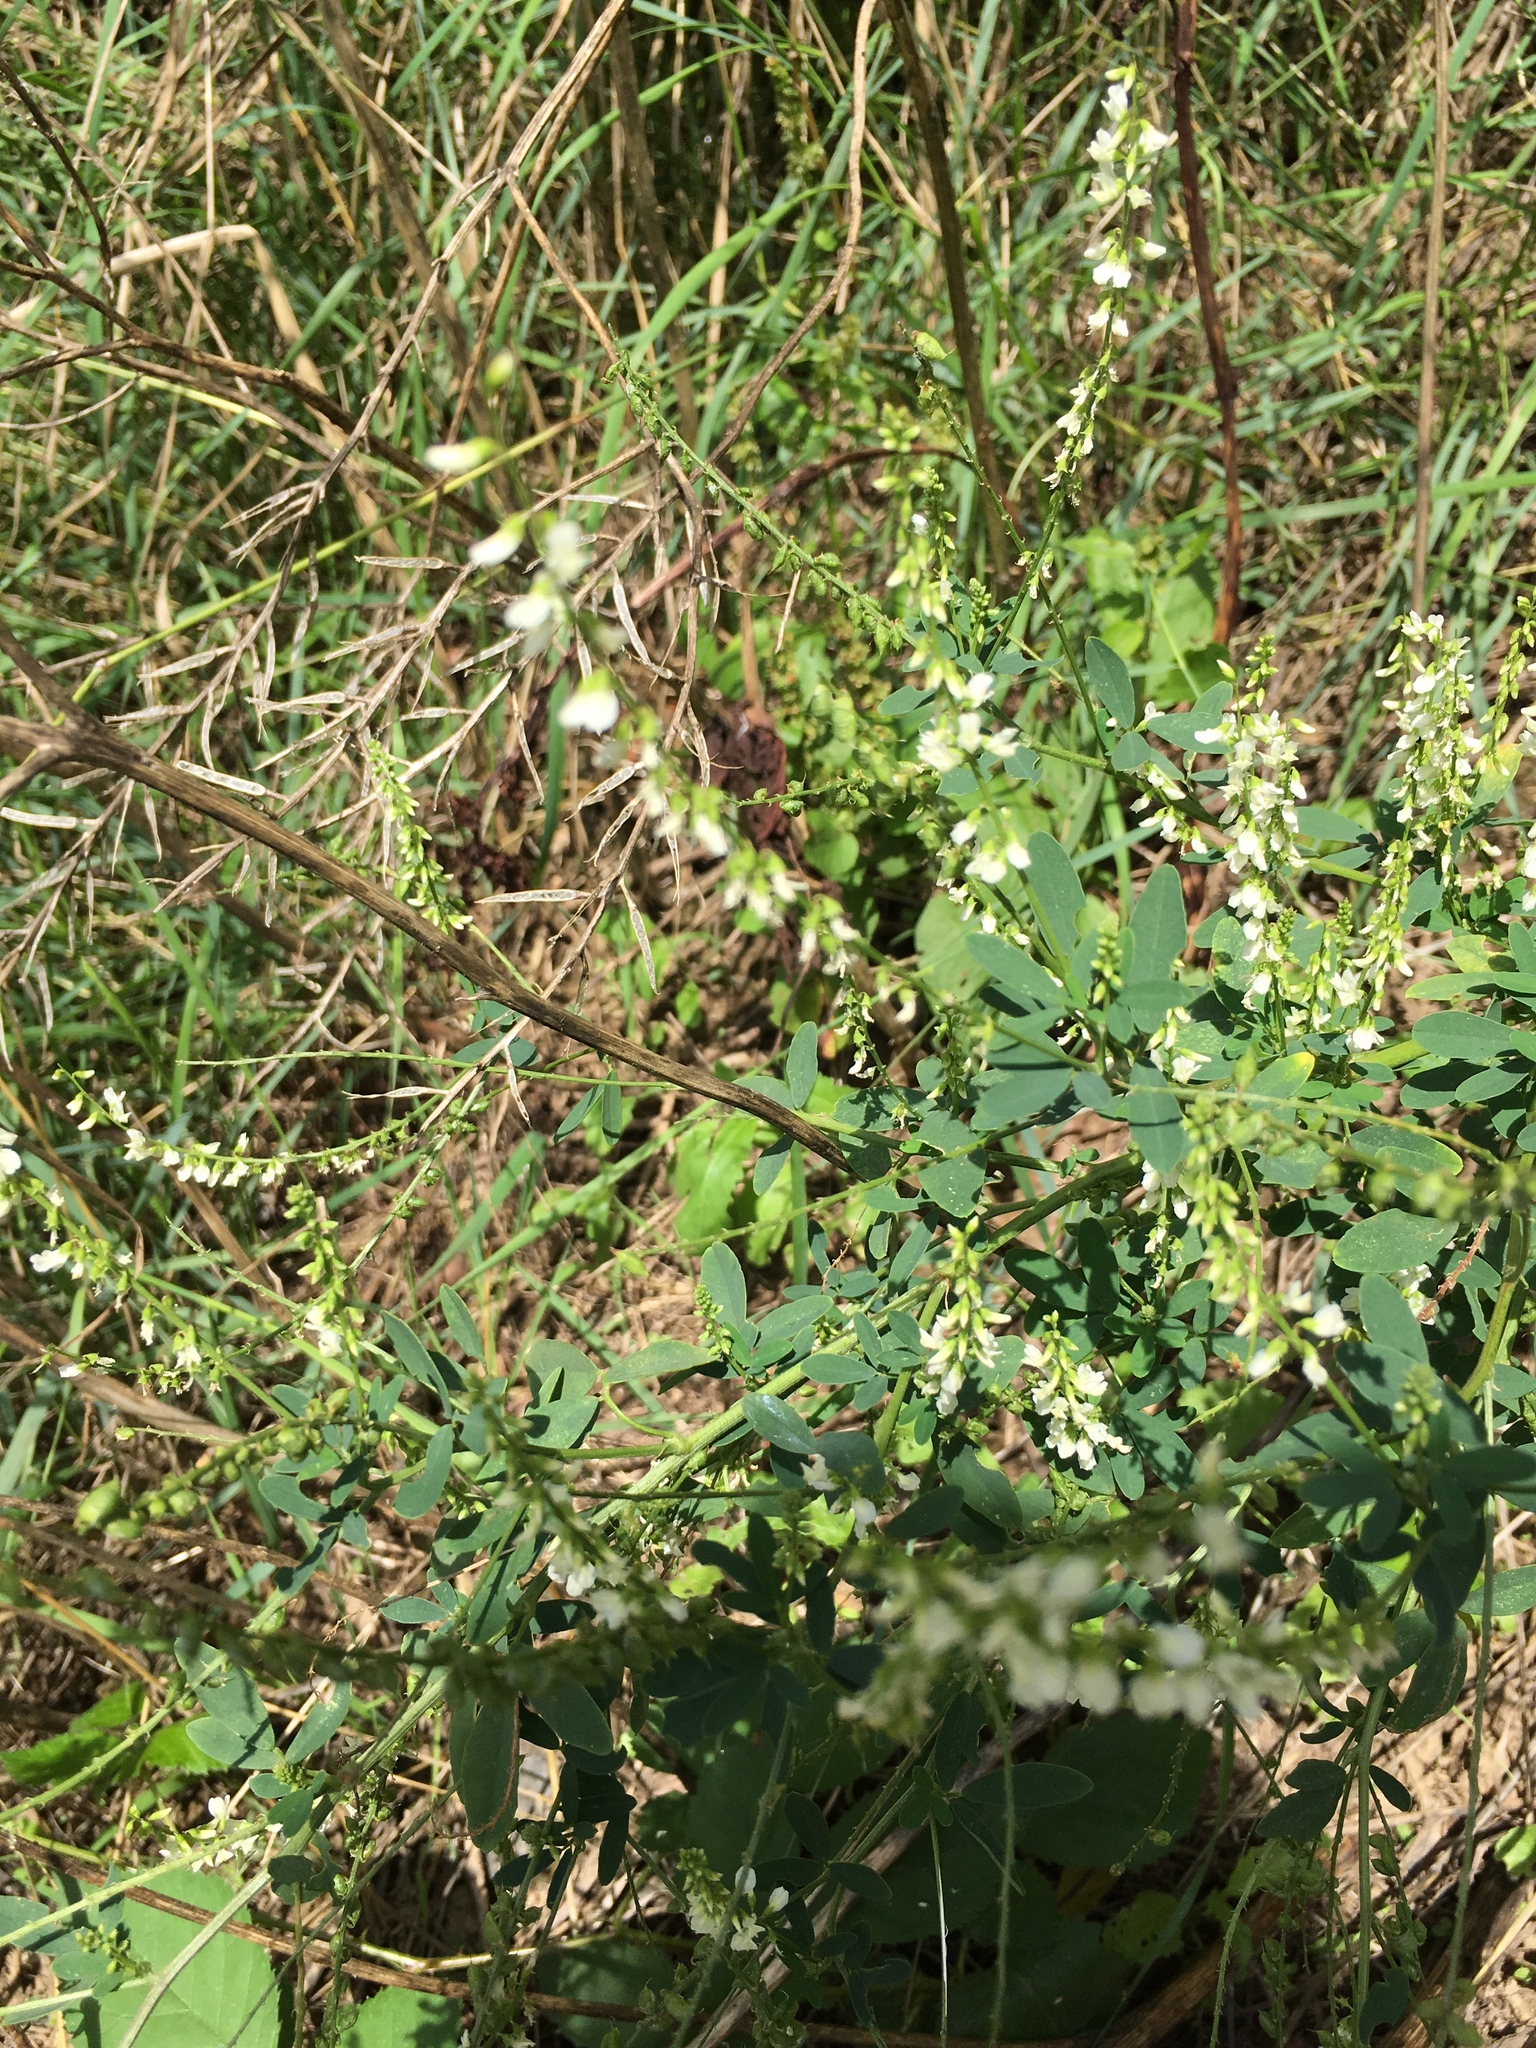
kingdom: Plantae
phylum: Tracheophyta
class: Magnoliopsida
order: Fabales
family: Fabaceae
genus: Melilotus
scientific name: Melilotus albus
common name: White melilot
